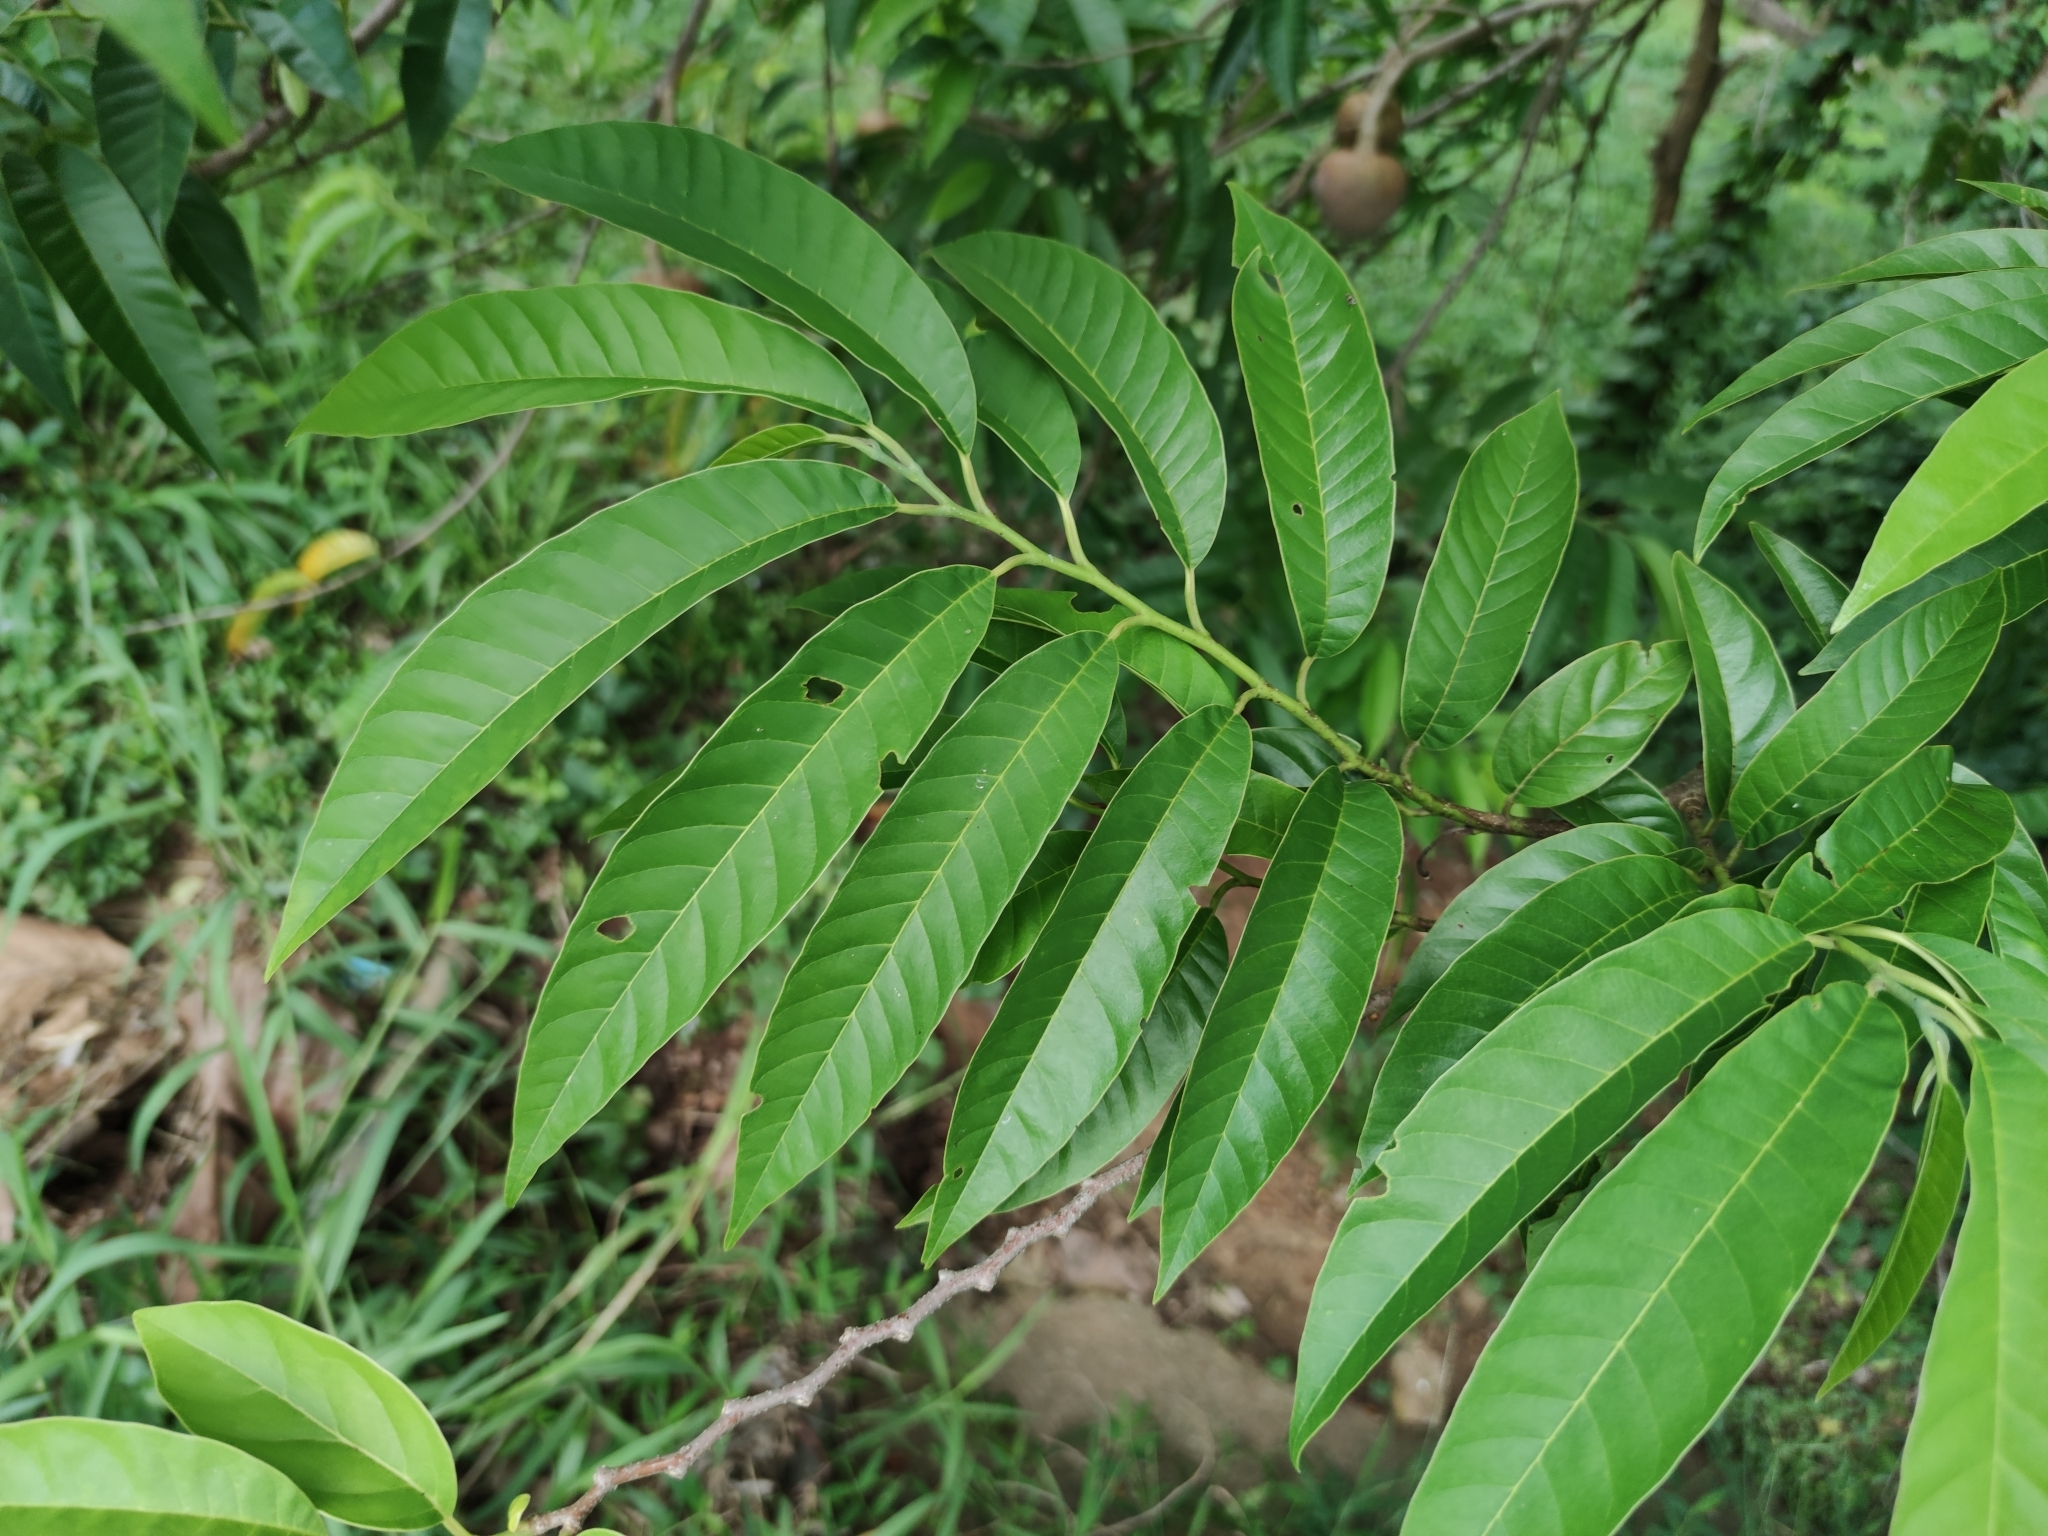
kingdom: Plantae
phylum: Tracheophyta
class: Magnoliopsida
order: Magnoliales
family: Annonaceae
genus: Annona
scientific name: Annona reticulata
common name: Custard apple
